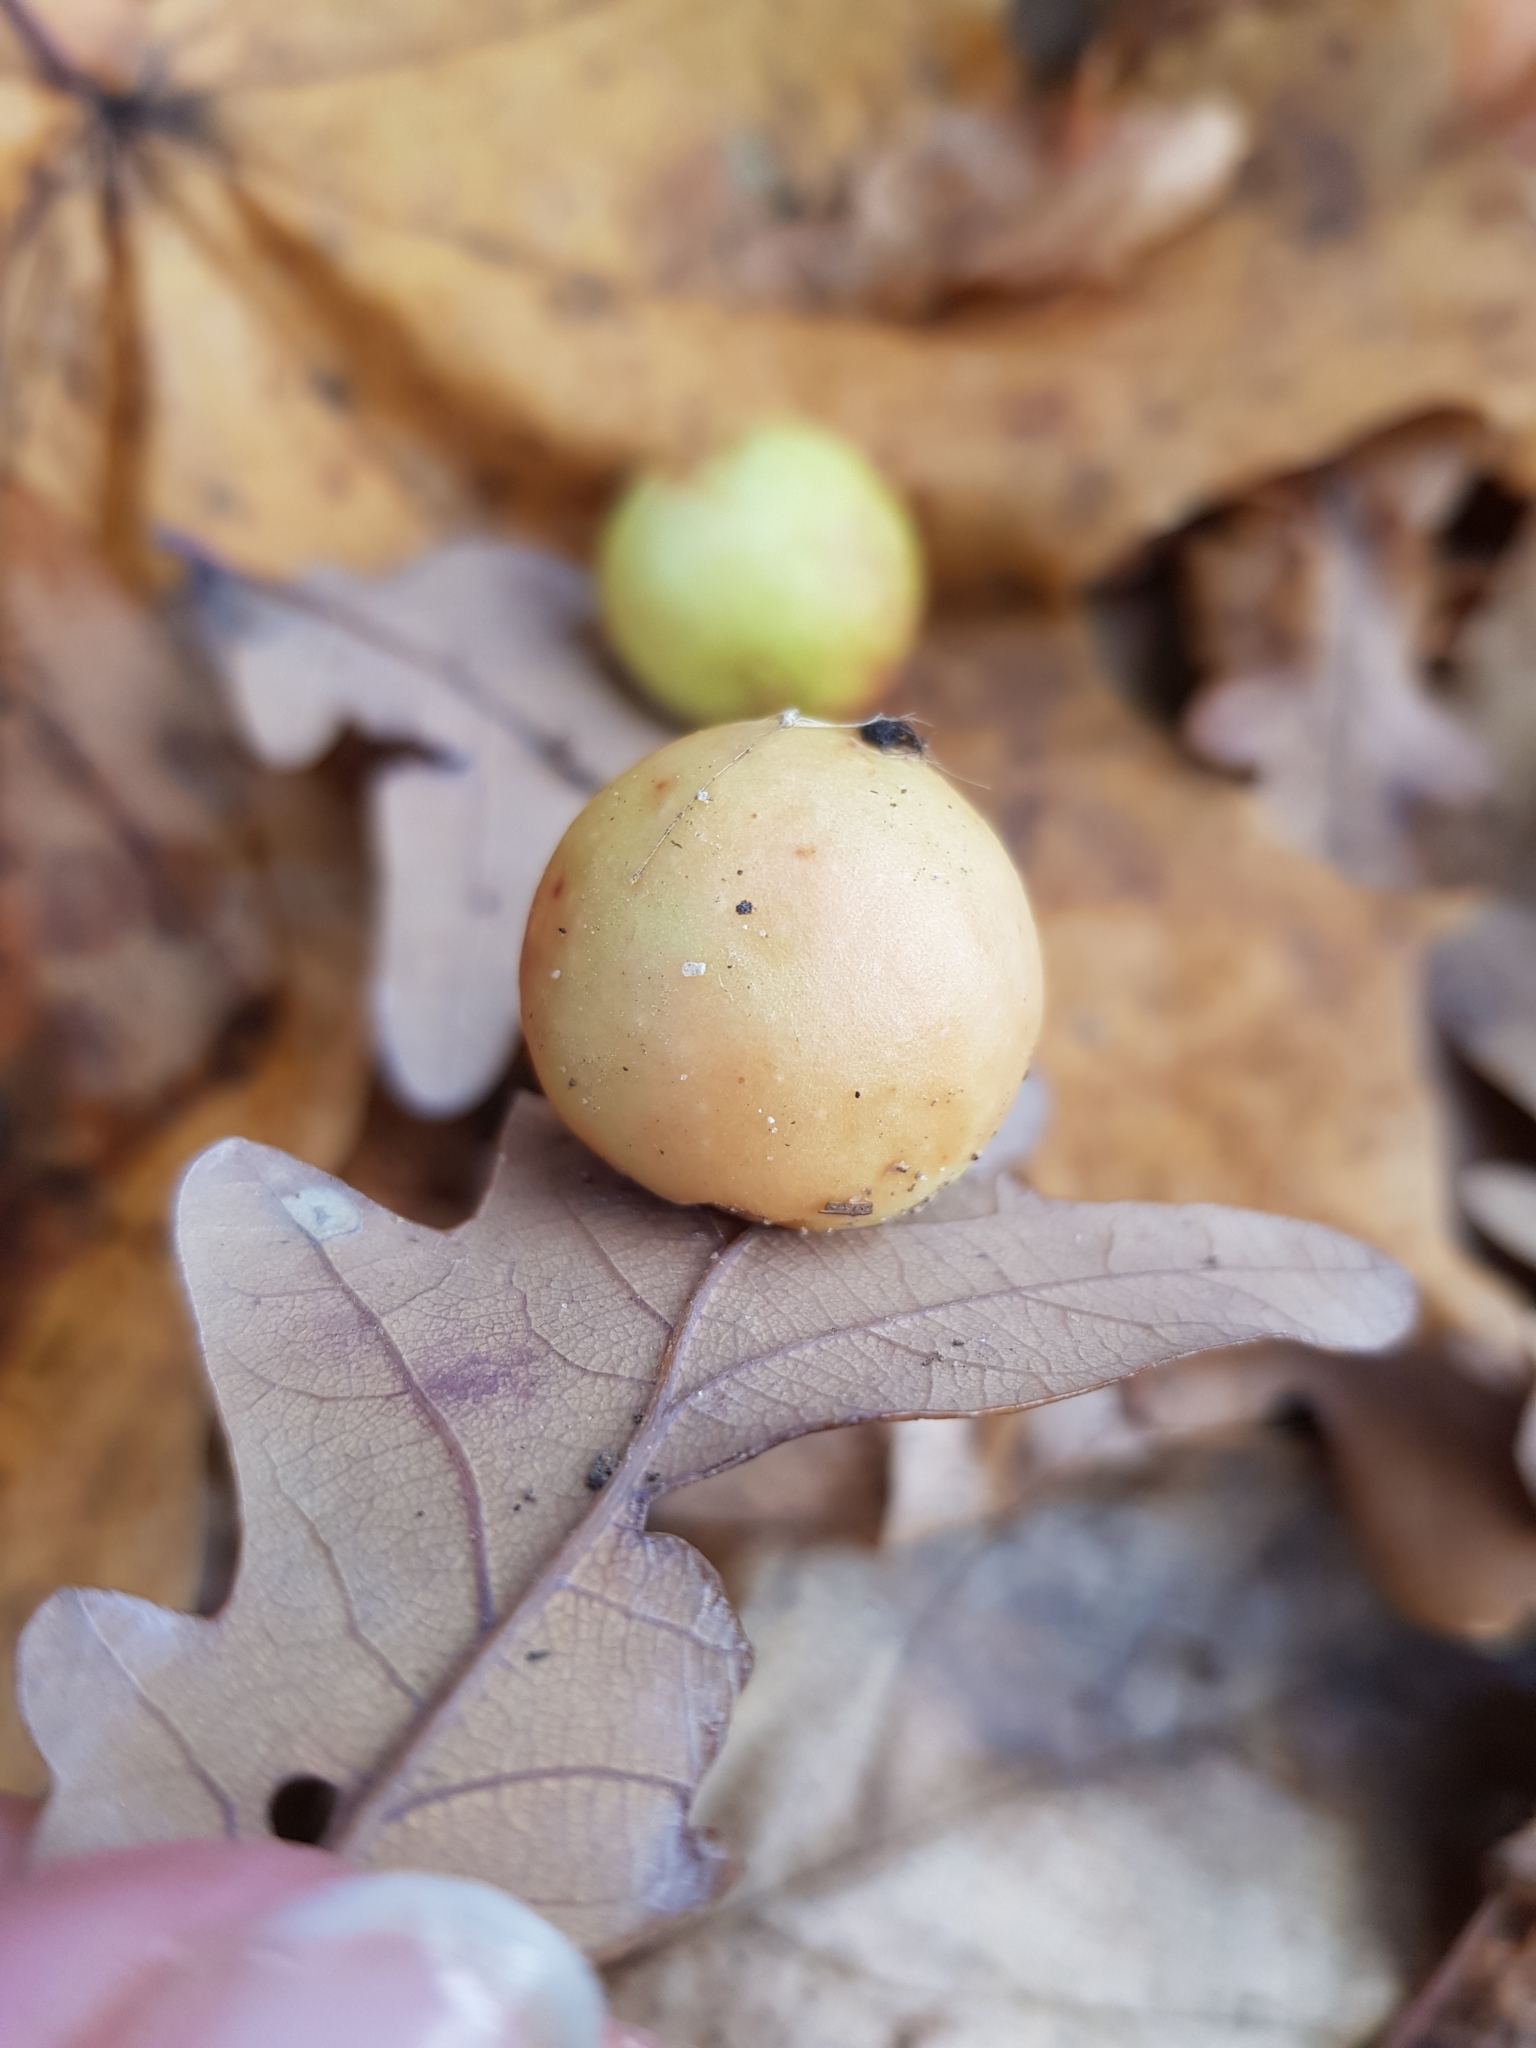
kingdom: Animalia
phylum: Arthropoda
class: Insecta
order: Hymenoptera
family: Cynipidae
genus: Cynips
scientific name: Cynips quercusfolii
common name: Cherry gall
